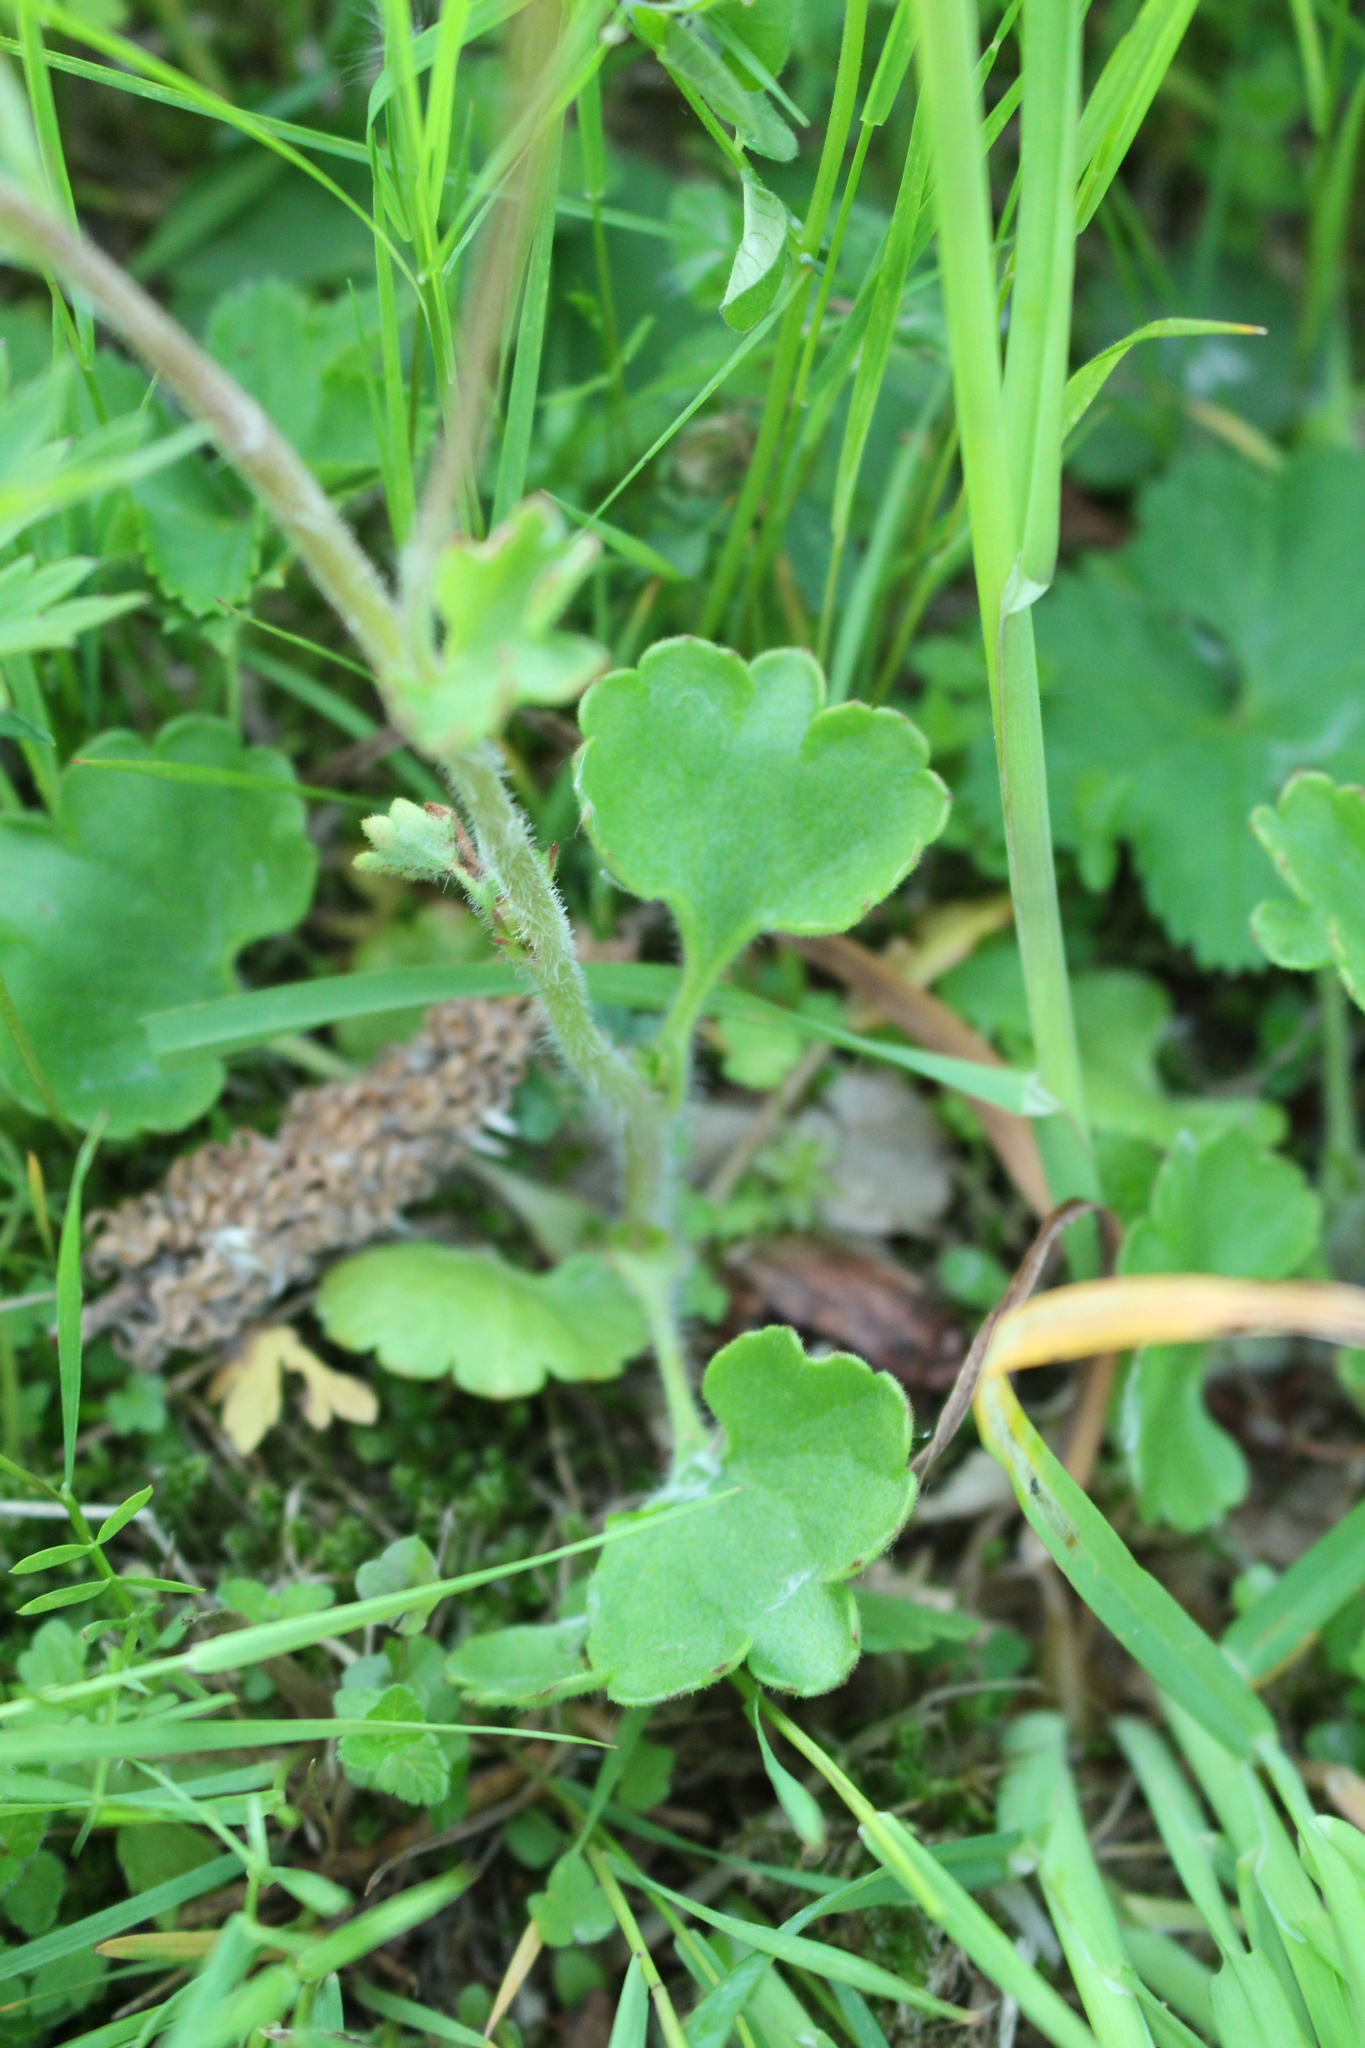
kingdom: Plantae
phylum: Tracheophyta
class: Magnoliopsida
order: Saxifragales
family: Saxifragaceae
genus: Saxifraga
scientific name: Saxifraga granulata
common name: Meadow saxifrage
